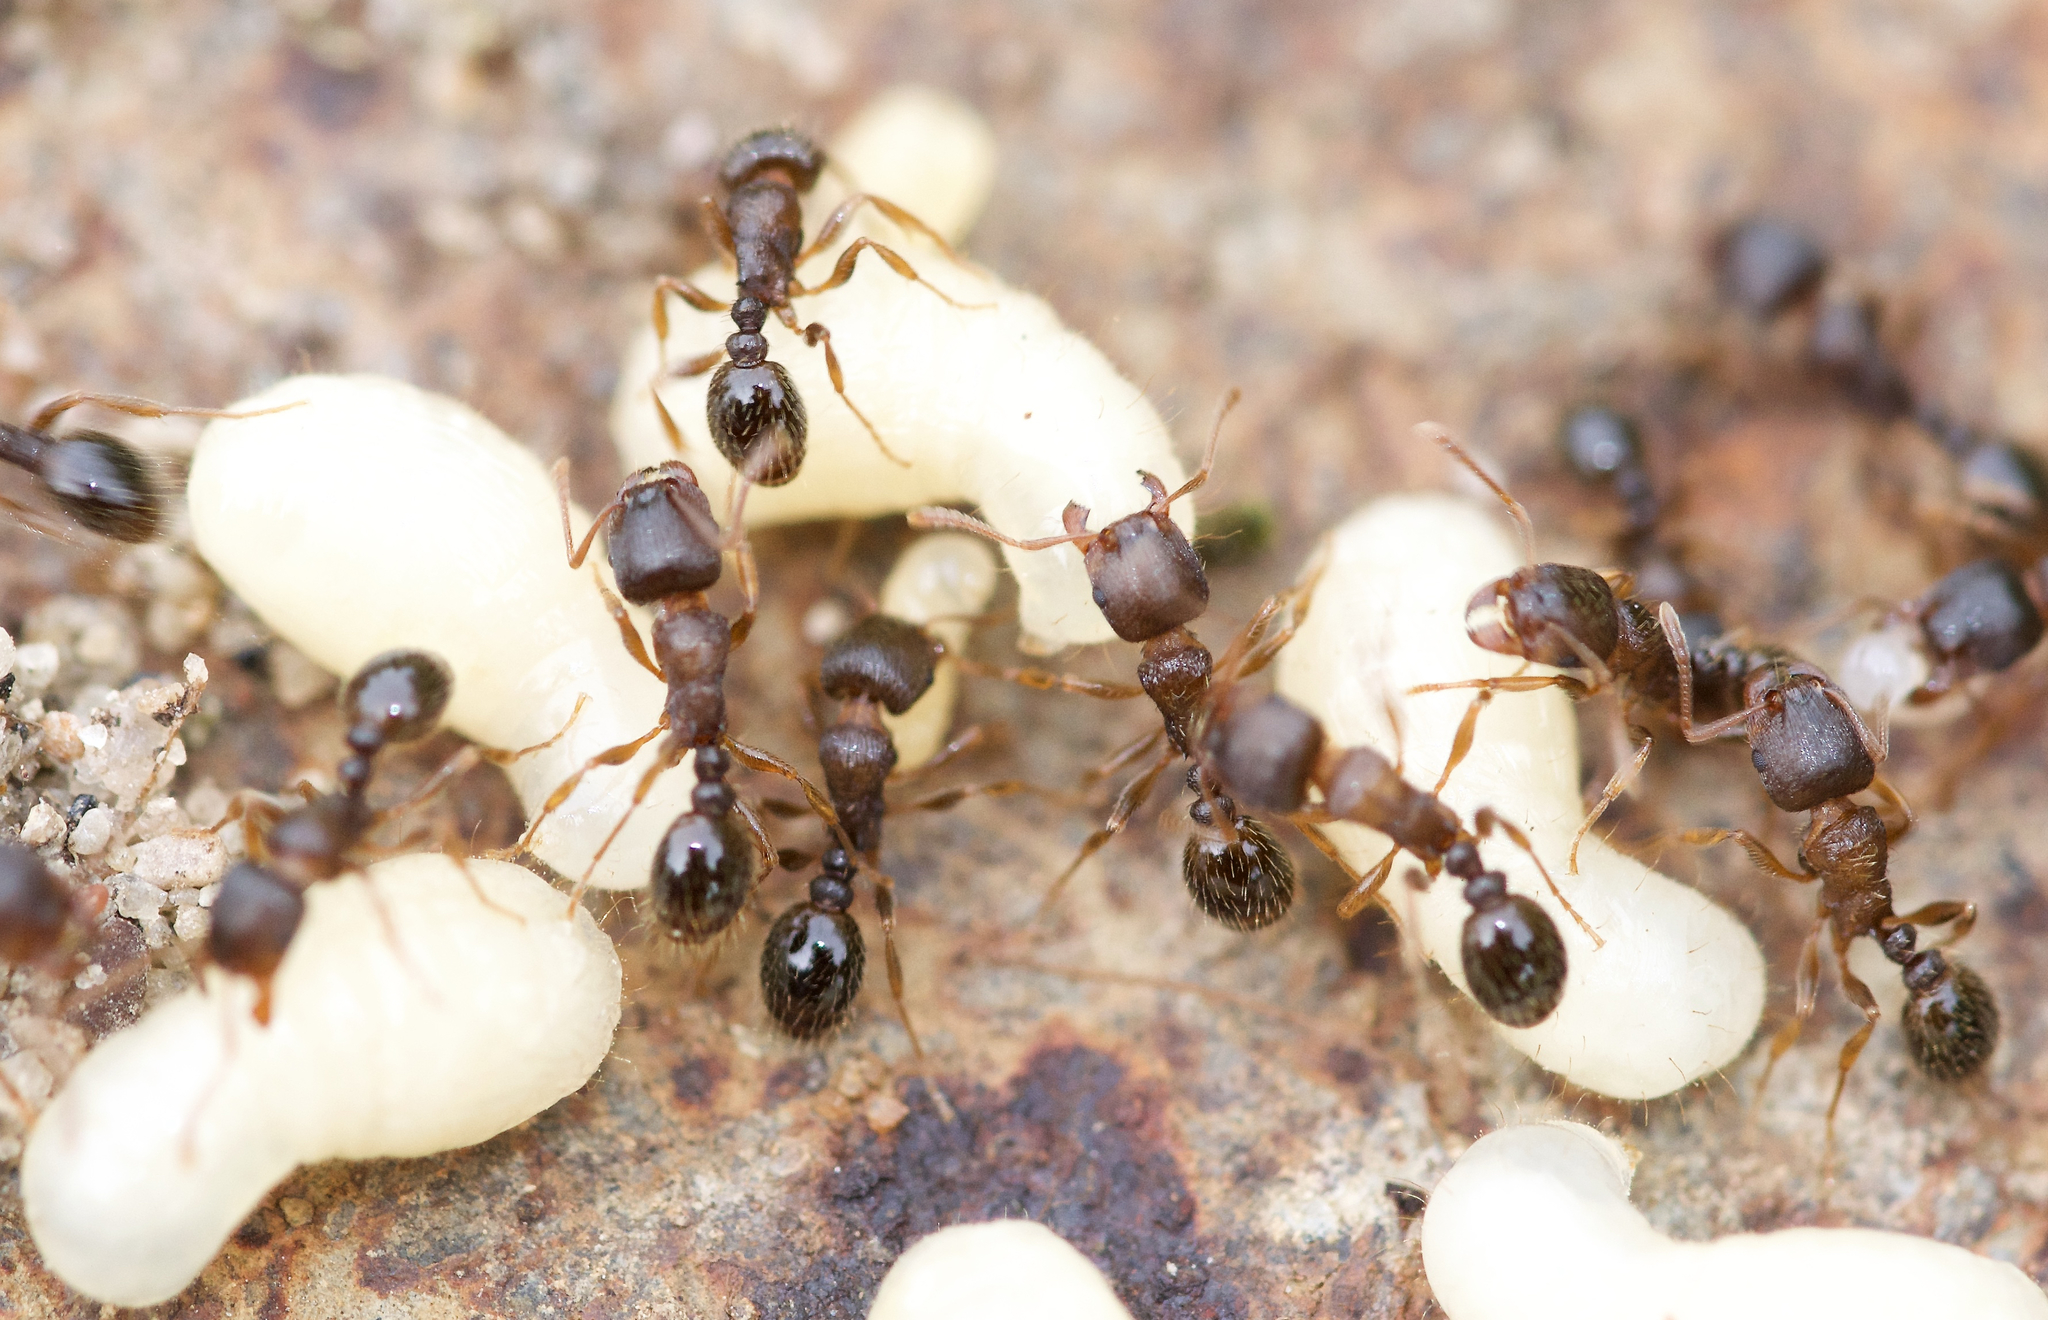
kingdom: Animalia
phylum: Arthropoda
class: Insecta
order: Hymenoptera
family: Formicidae
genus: Tetramorium
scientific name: Tetramorium immigrans
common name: Pavement ant
